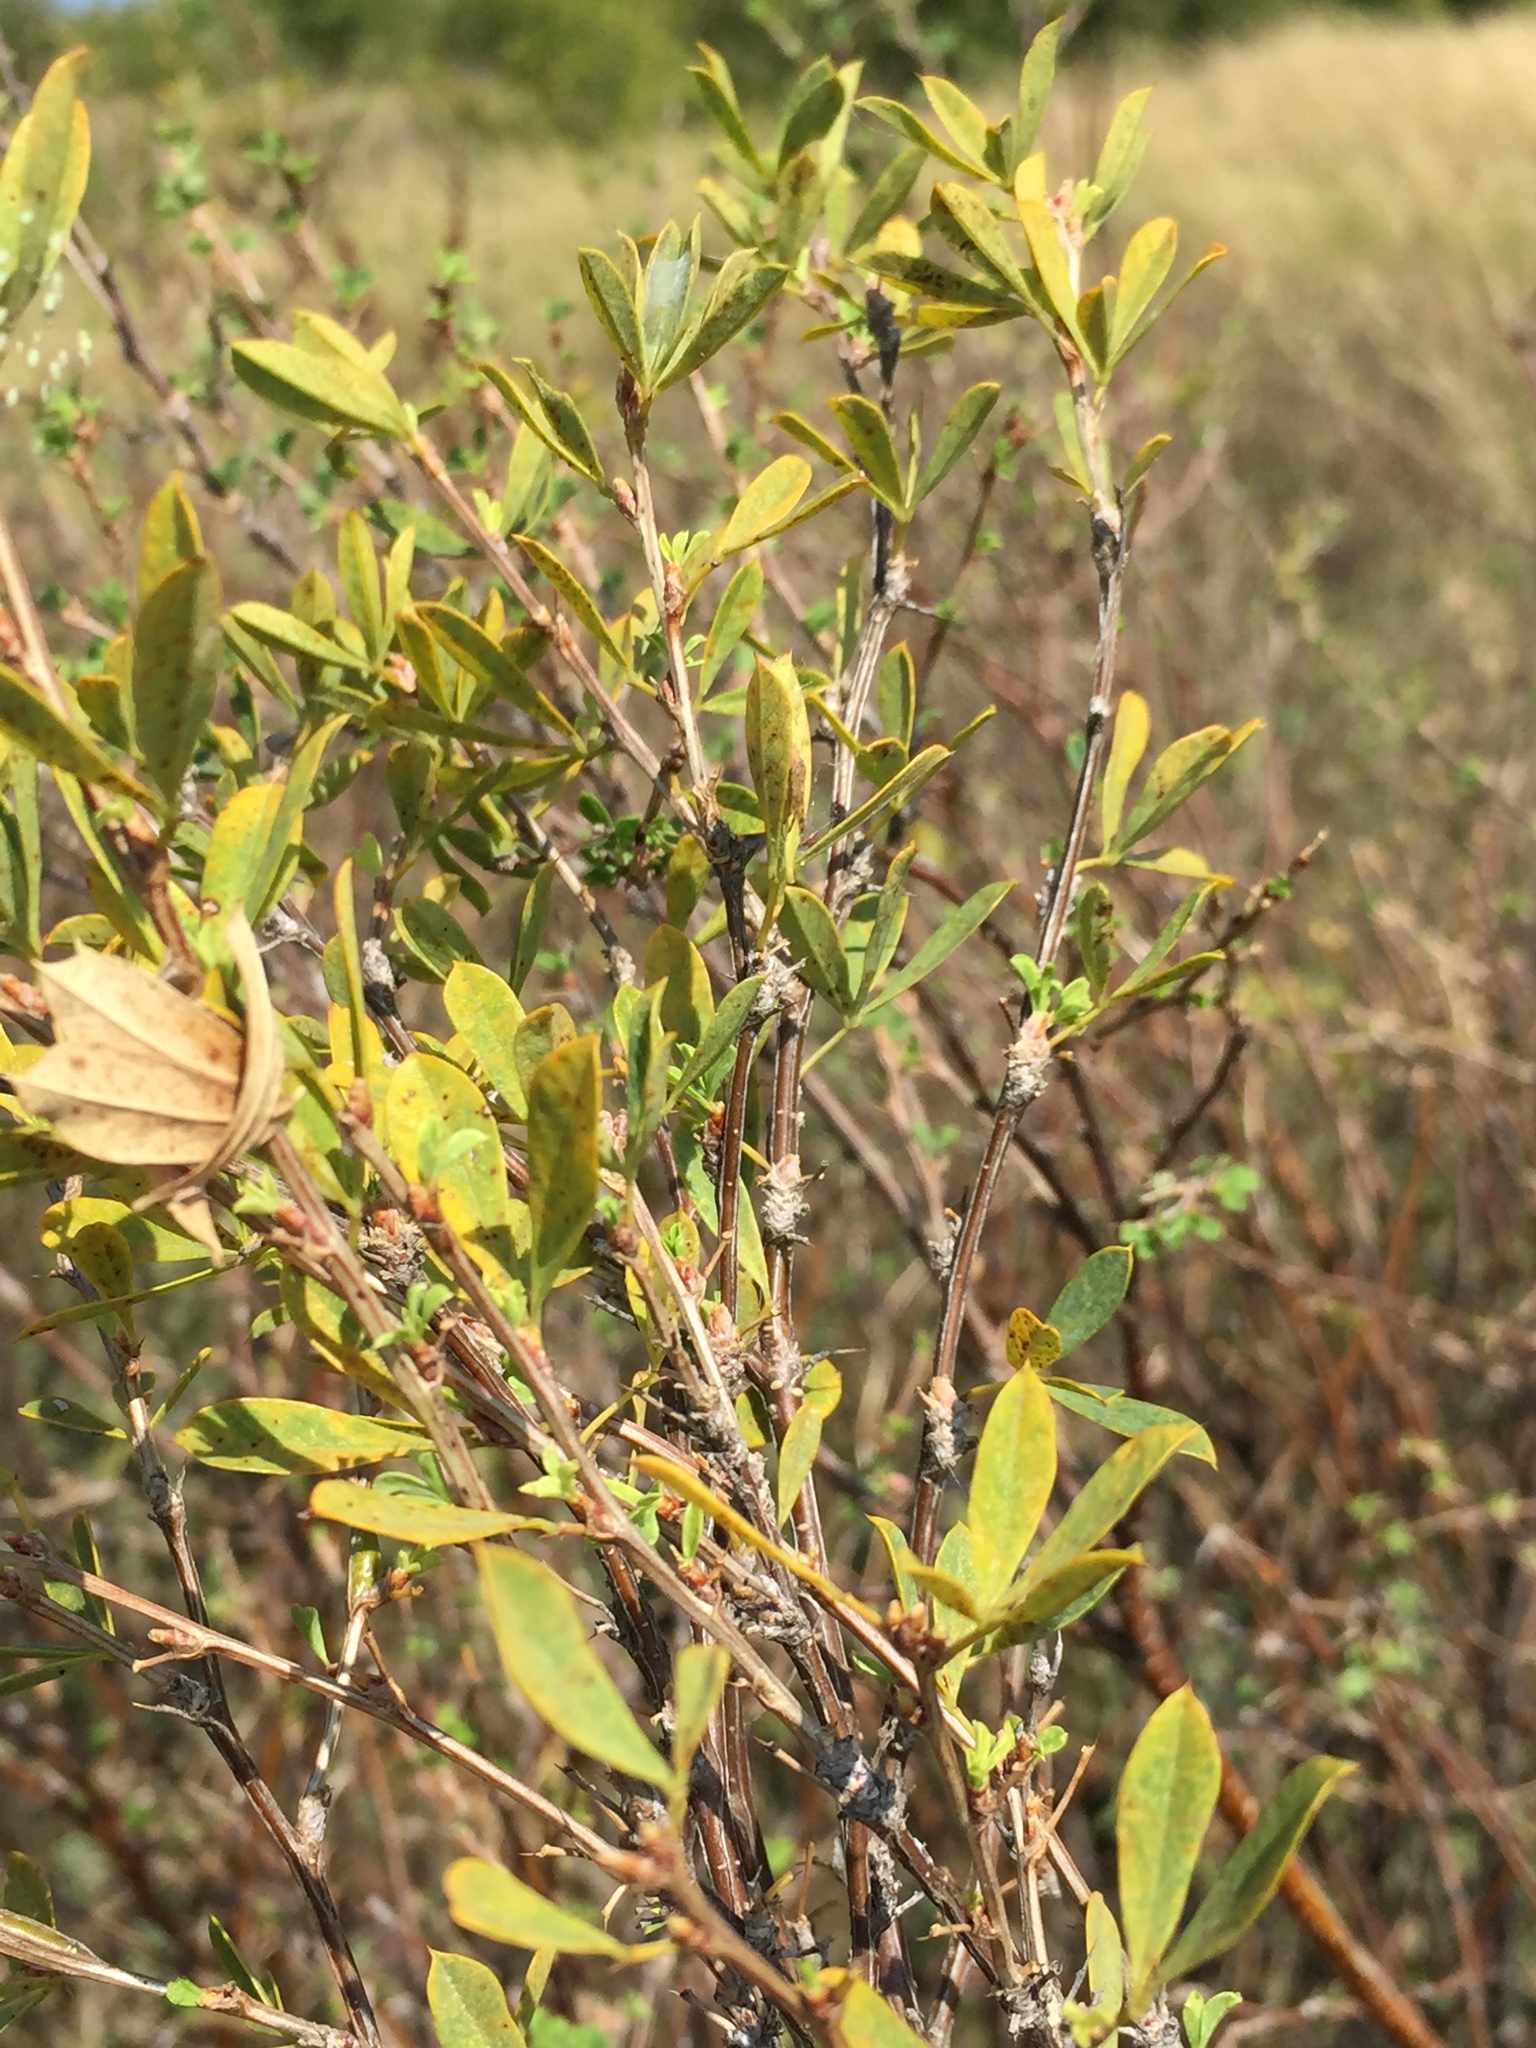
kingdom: Plantae
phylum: Tracheophyta
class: Magnoliopsida
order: Fabales
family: Fabaceae
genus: Caragana
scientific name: Caragana frutex
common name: Russian peashrub
